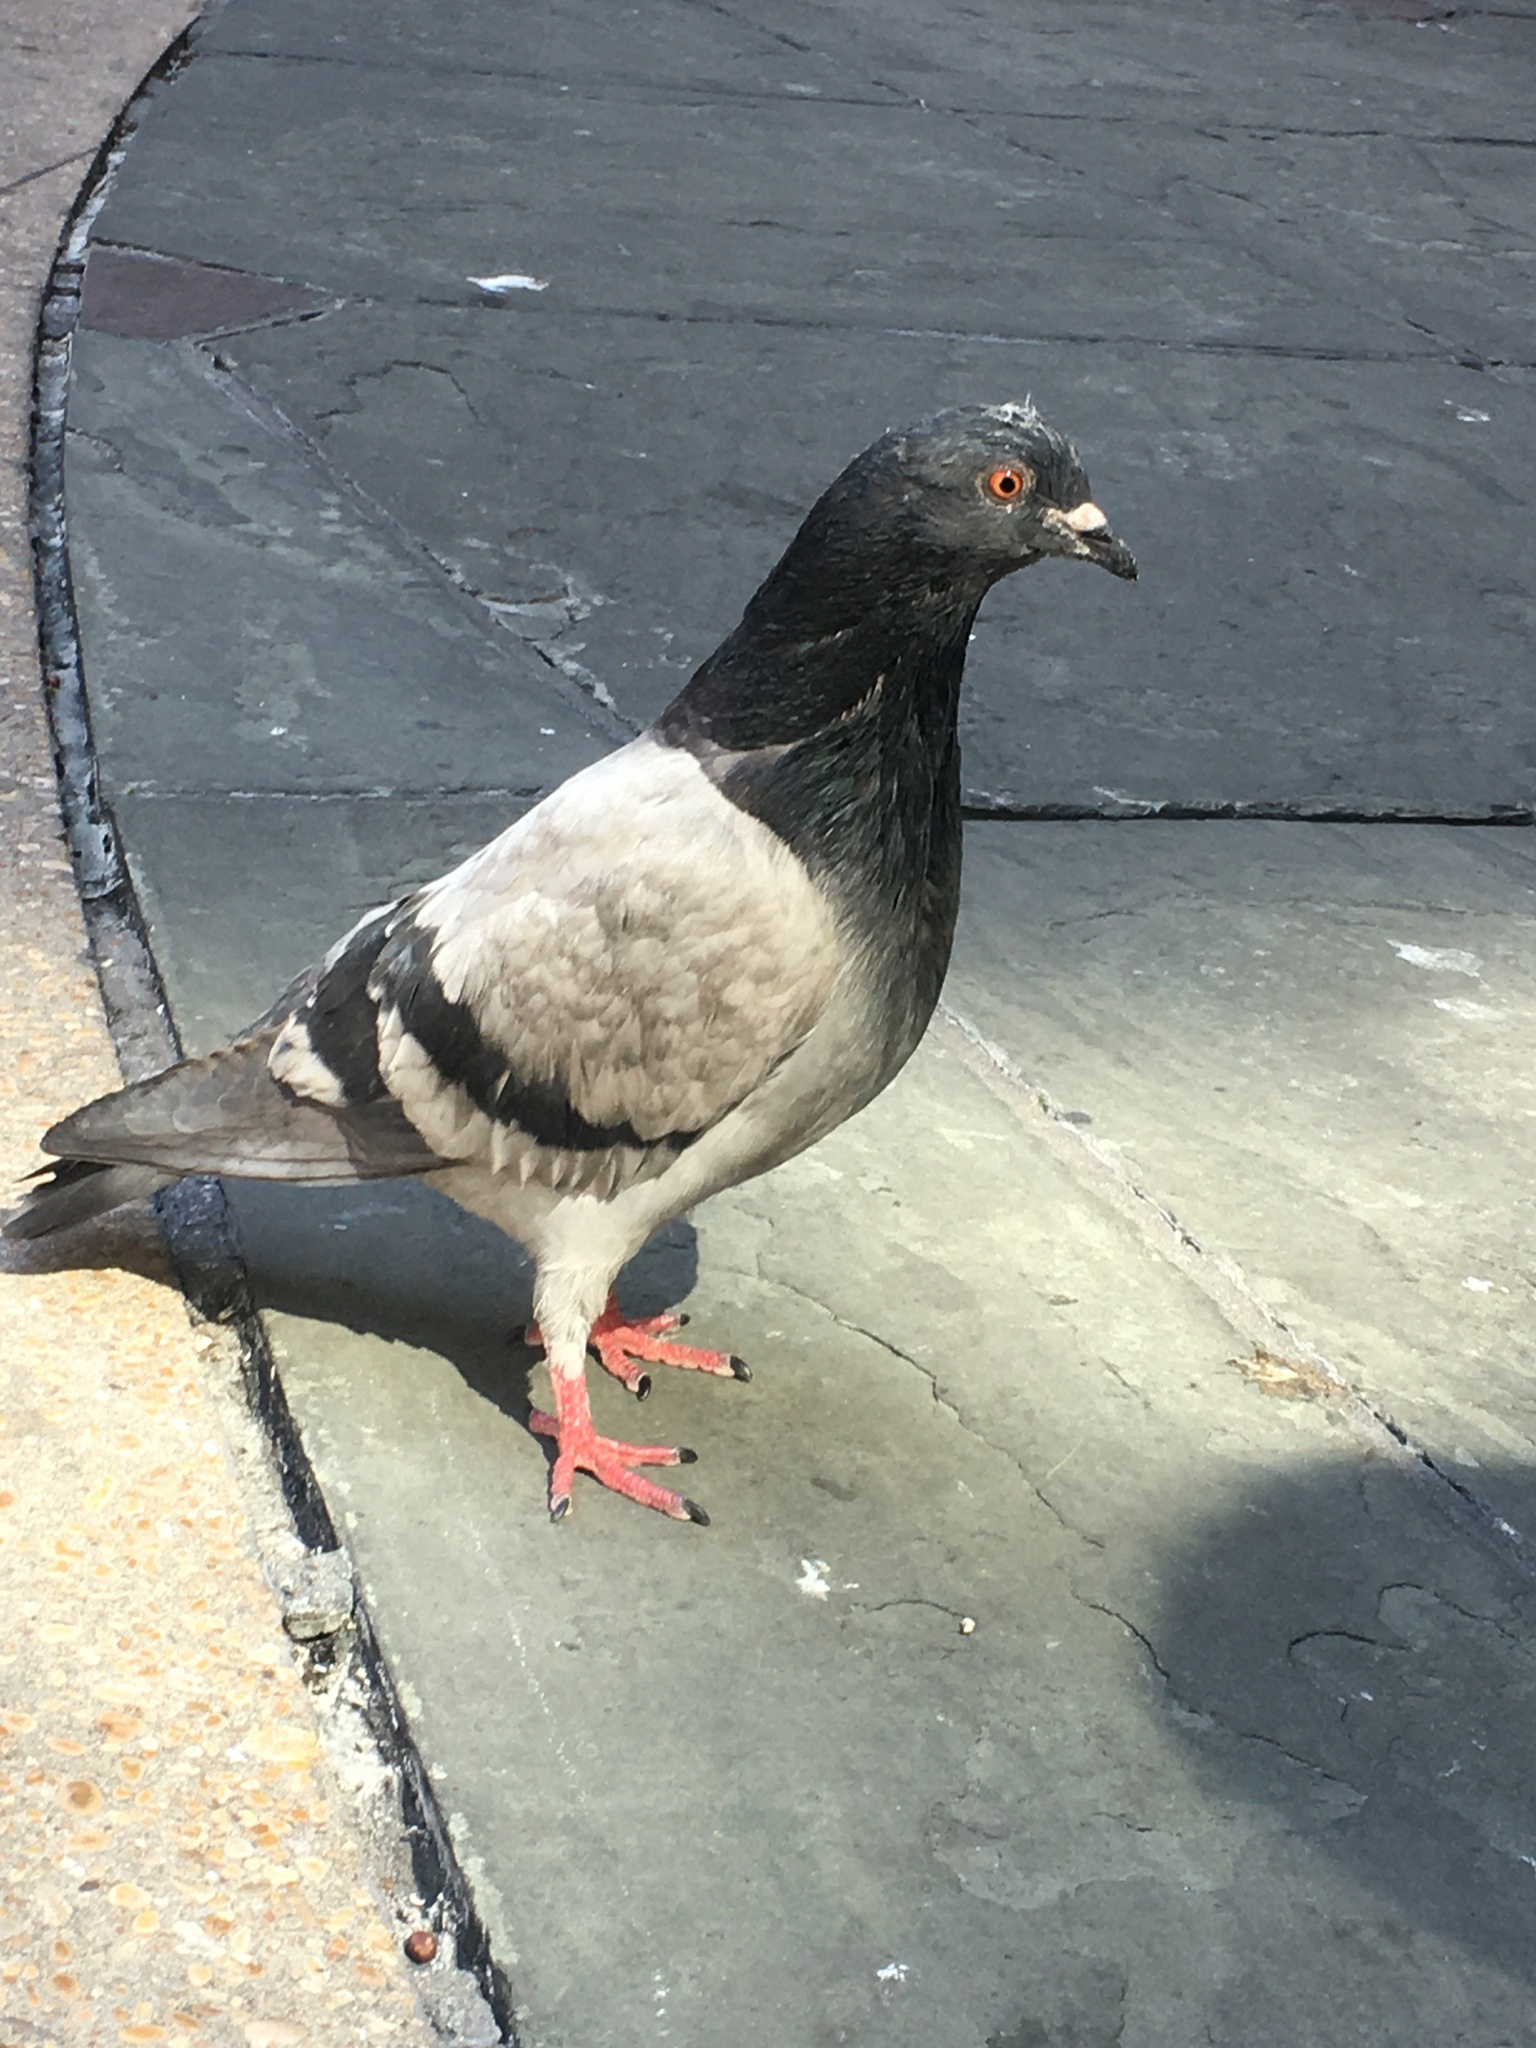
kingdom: Animalia
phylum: Chordata
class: Aves
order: Columbiformes
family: Columbidae
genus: Columba
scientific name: Columba livia
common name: Rock pigeon
